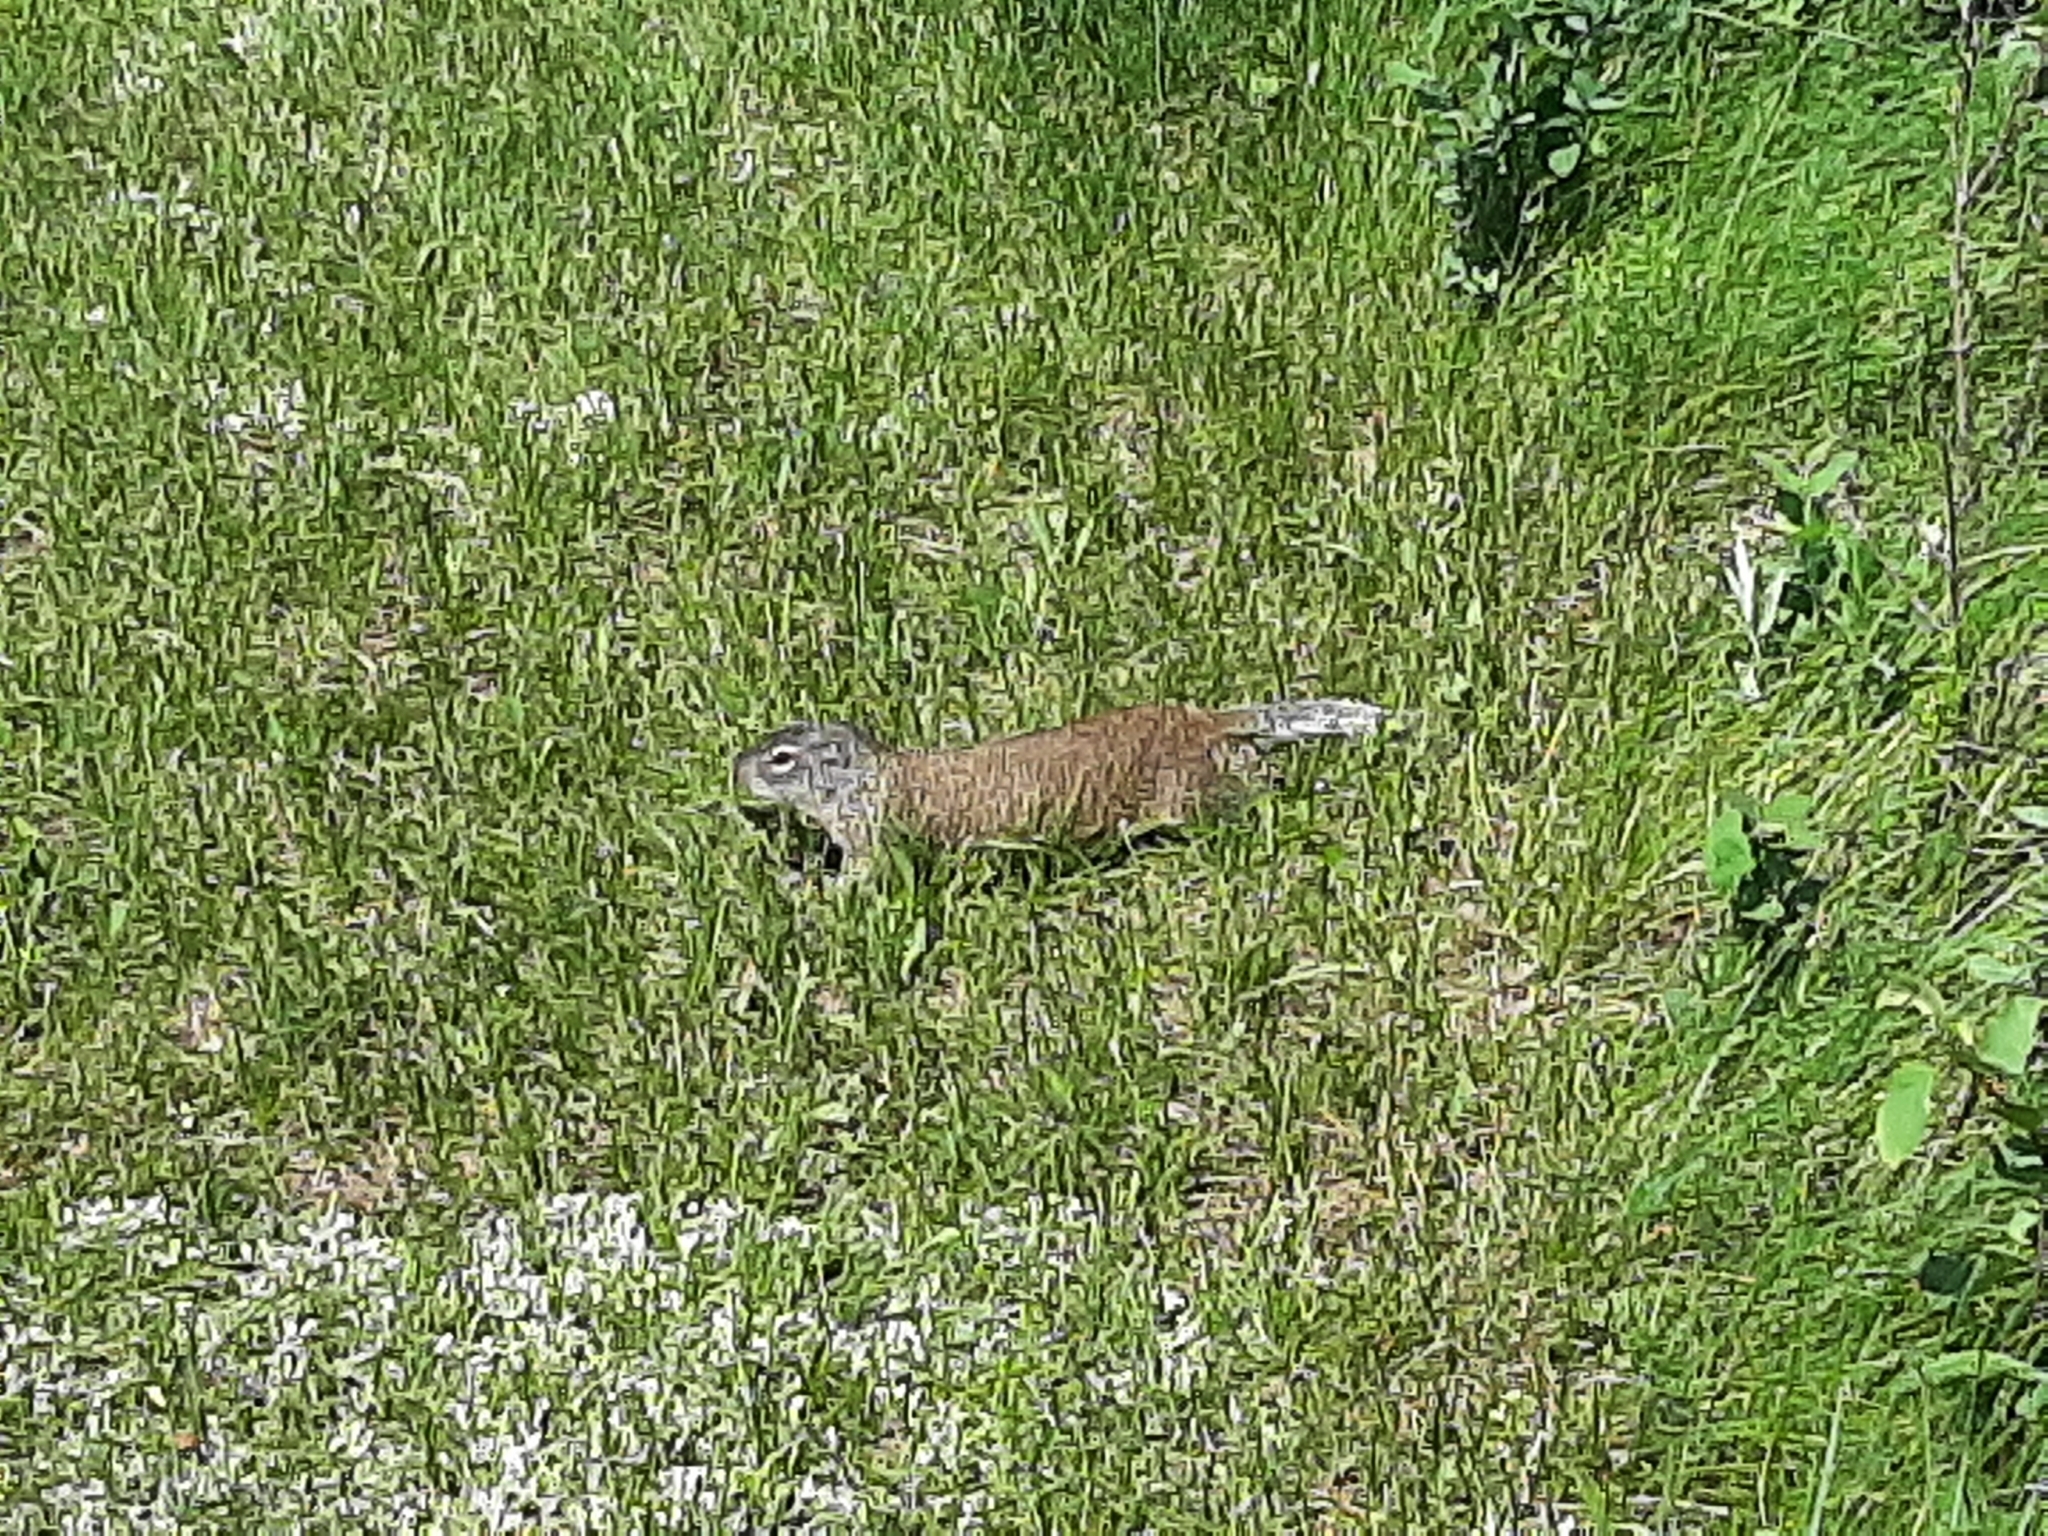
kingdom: Animalia
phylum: Chordata
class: Mammalia
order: Rodentia
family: Sciuridae
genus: Poliocitellus
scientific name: Poliocitellus franklinii
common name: Franklin's ground squirrel
